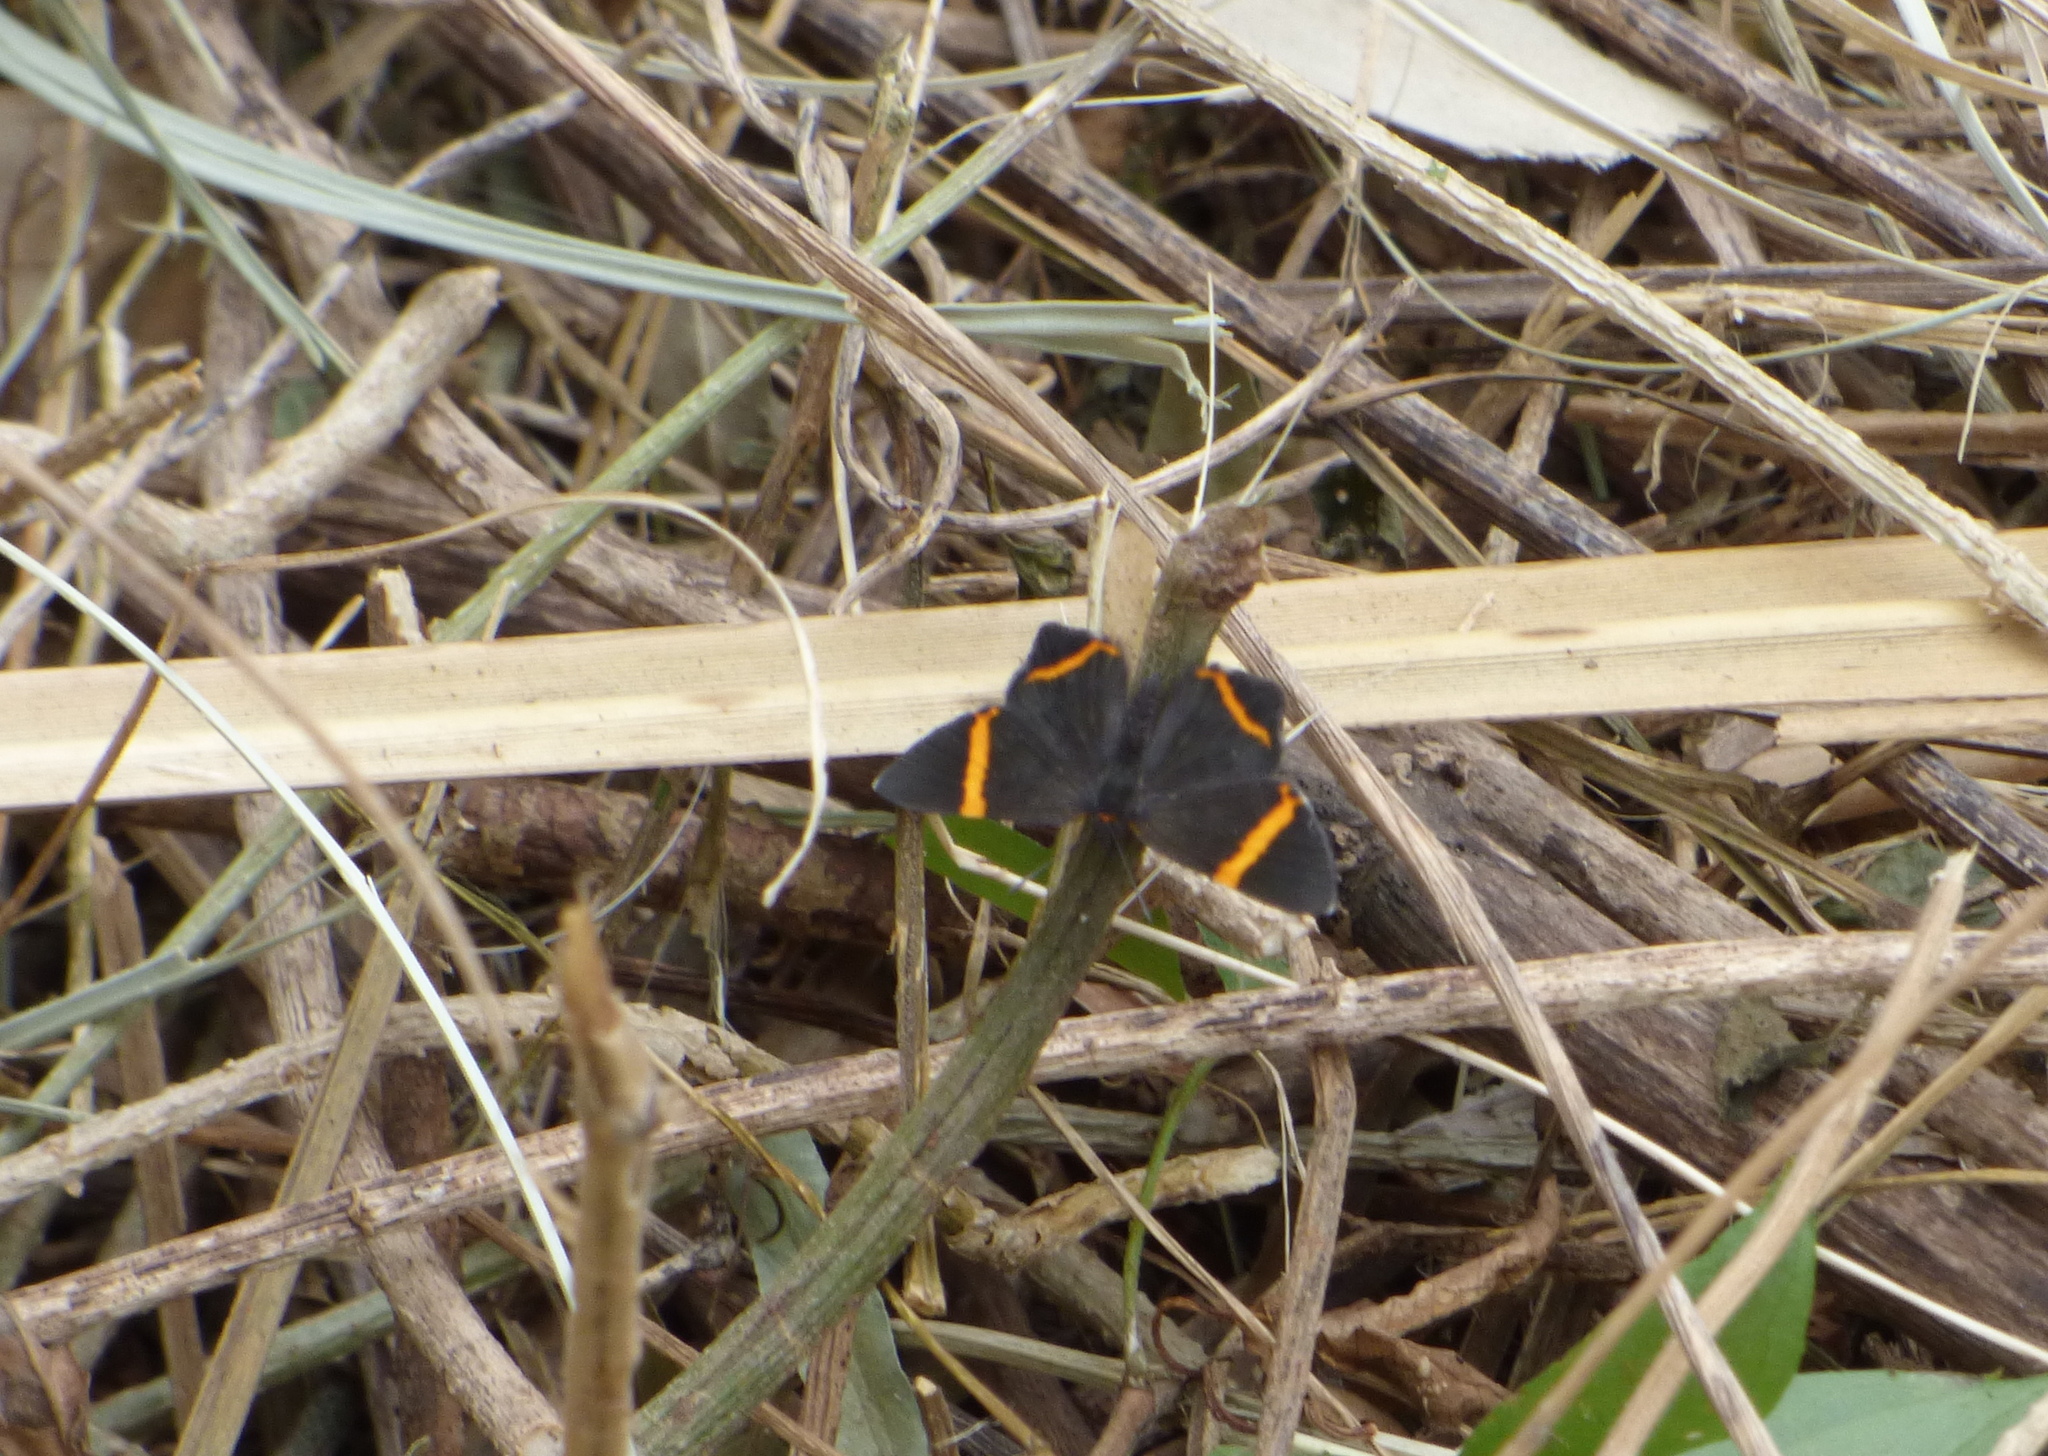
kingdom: Animalia
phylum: Arthropoda
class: Insecta
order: Lepidoptera
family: Riodinidae
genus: Riodina
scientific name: Riodina lysippoides
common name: Little dancer metalmark
